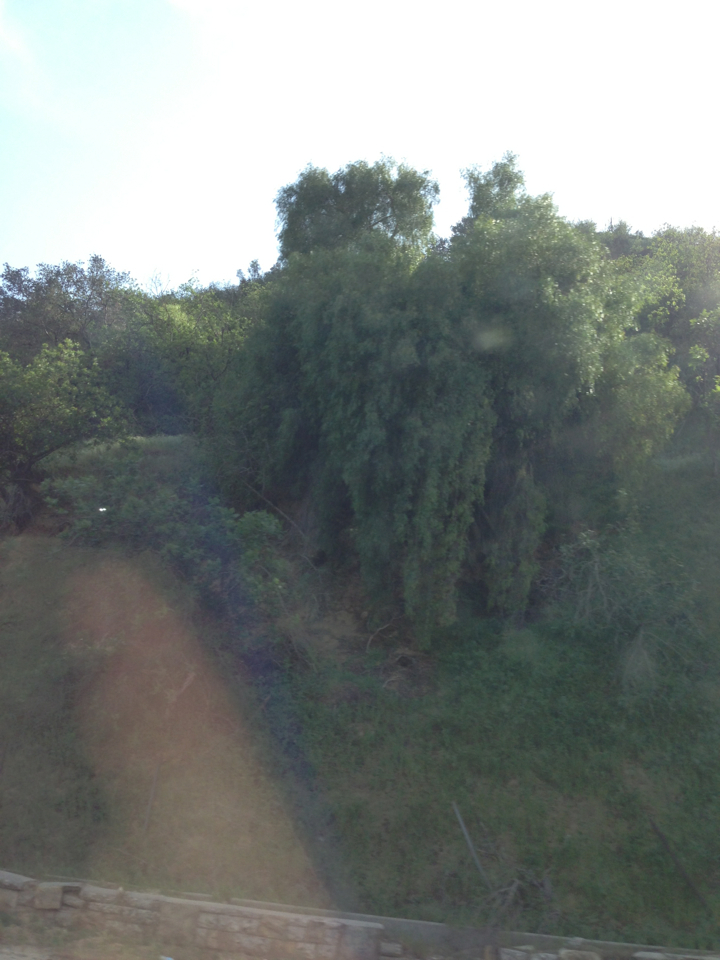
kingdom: Plantae
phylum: Tracheophyta
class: Magnoliopsida
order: Sapindales
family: Anacardiaceae
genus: Schinus
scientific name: Schinus molle
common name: Peruvian peppertree
